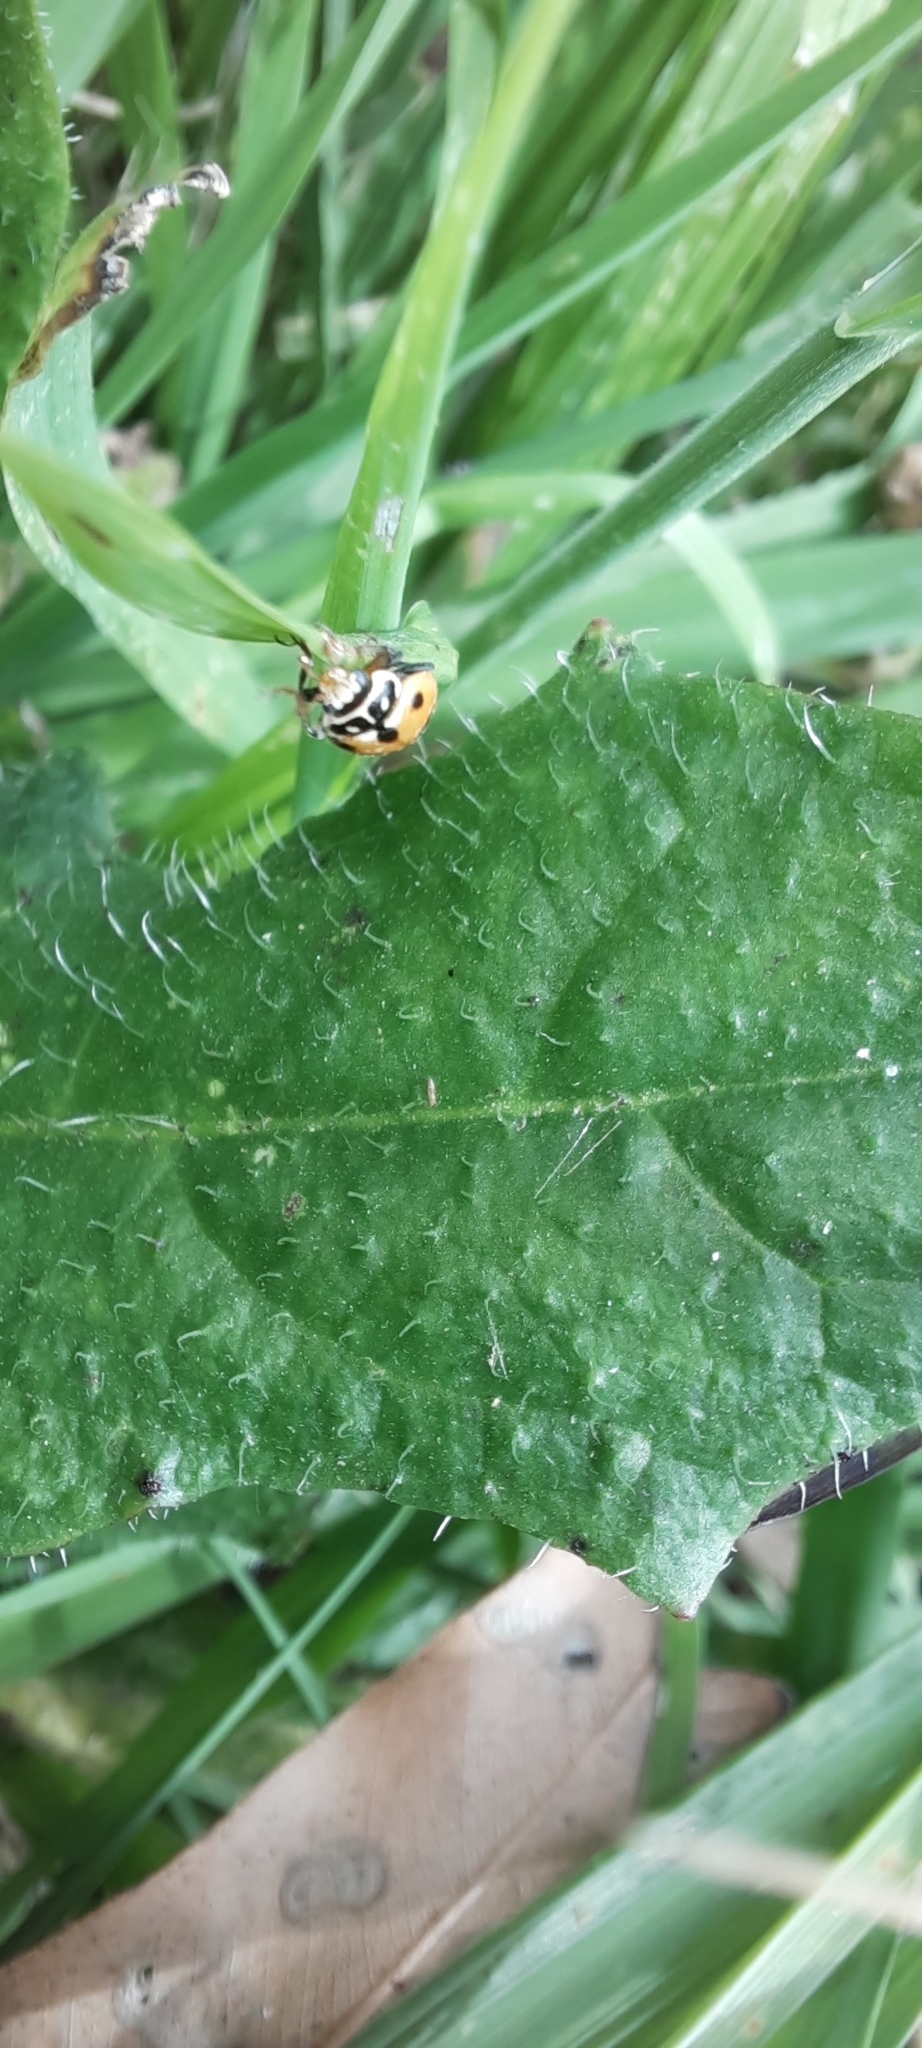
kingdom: Animalia
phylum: Arthropoda
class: Insecta
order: Coleoptera
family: Coccinellidae
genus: Hippodamia
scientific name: Hippodamia variegata
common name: Ladybird beetle
